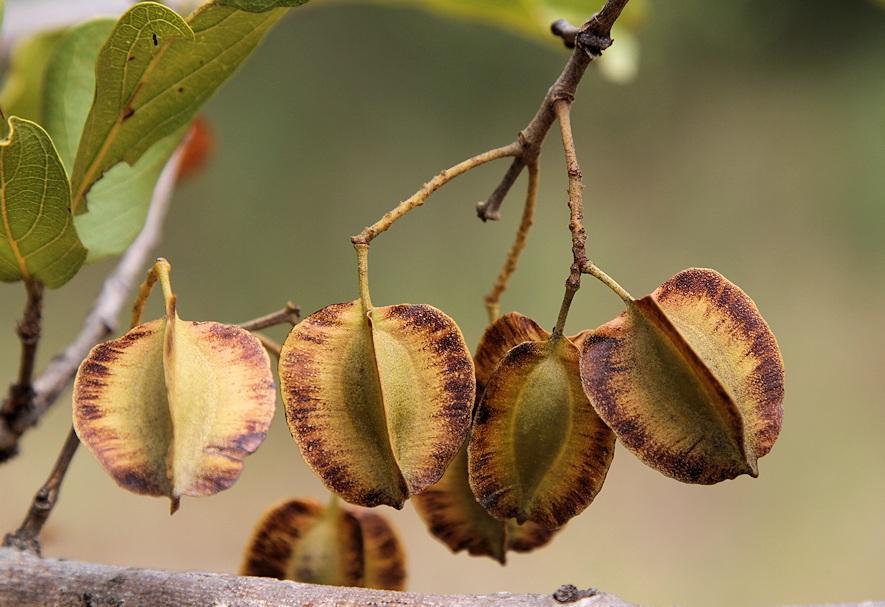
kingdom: Plantae
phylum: Tracheophyta
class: Magnoliopsida
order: Myrtales
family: Combretaceae
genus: Combretum
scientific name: Combretum apiculatum
